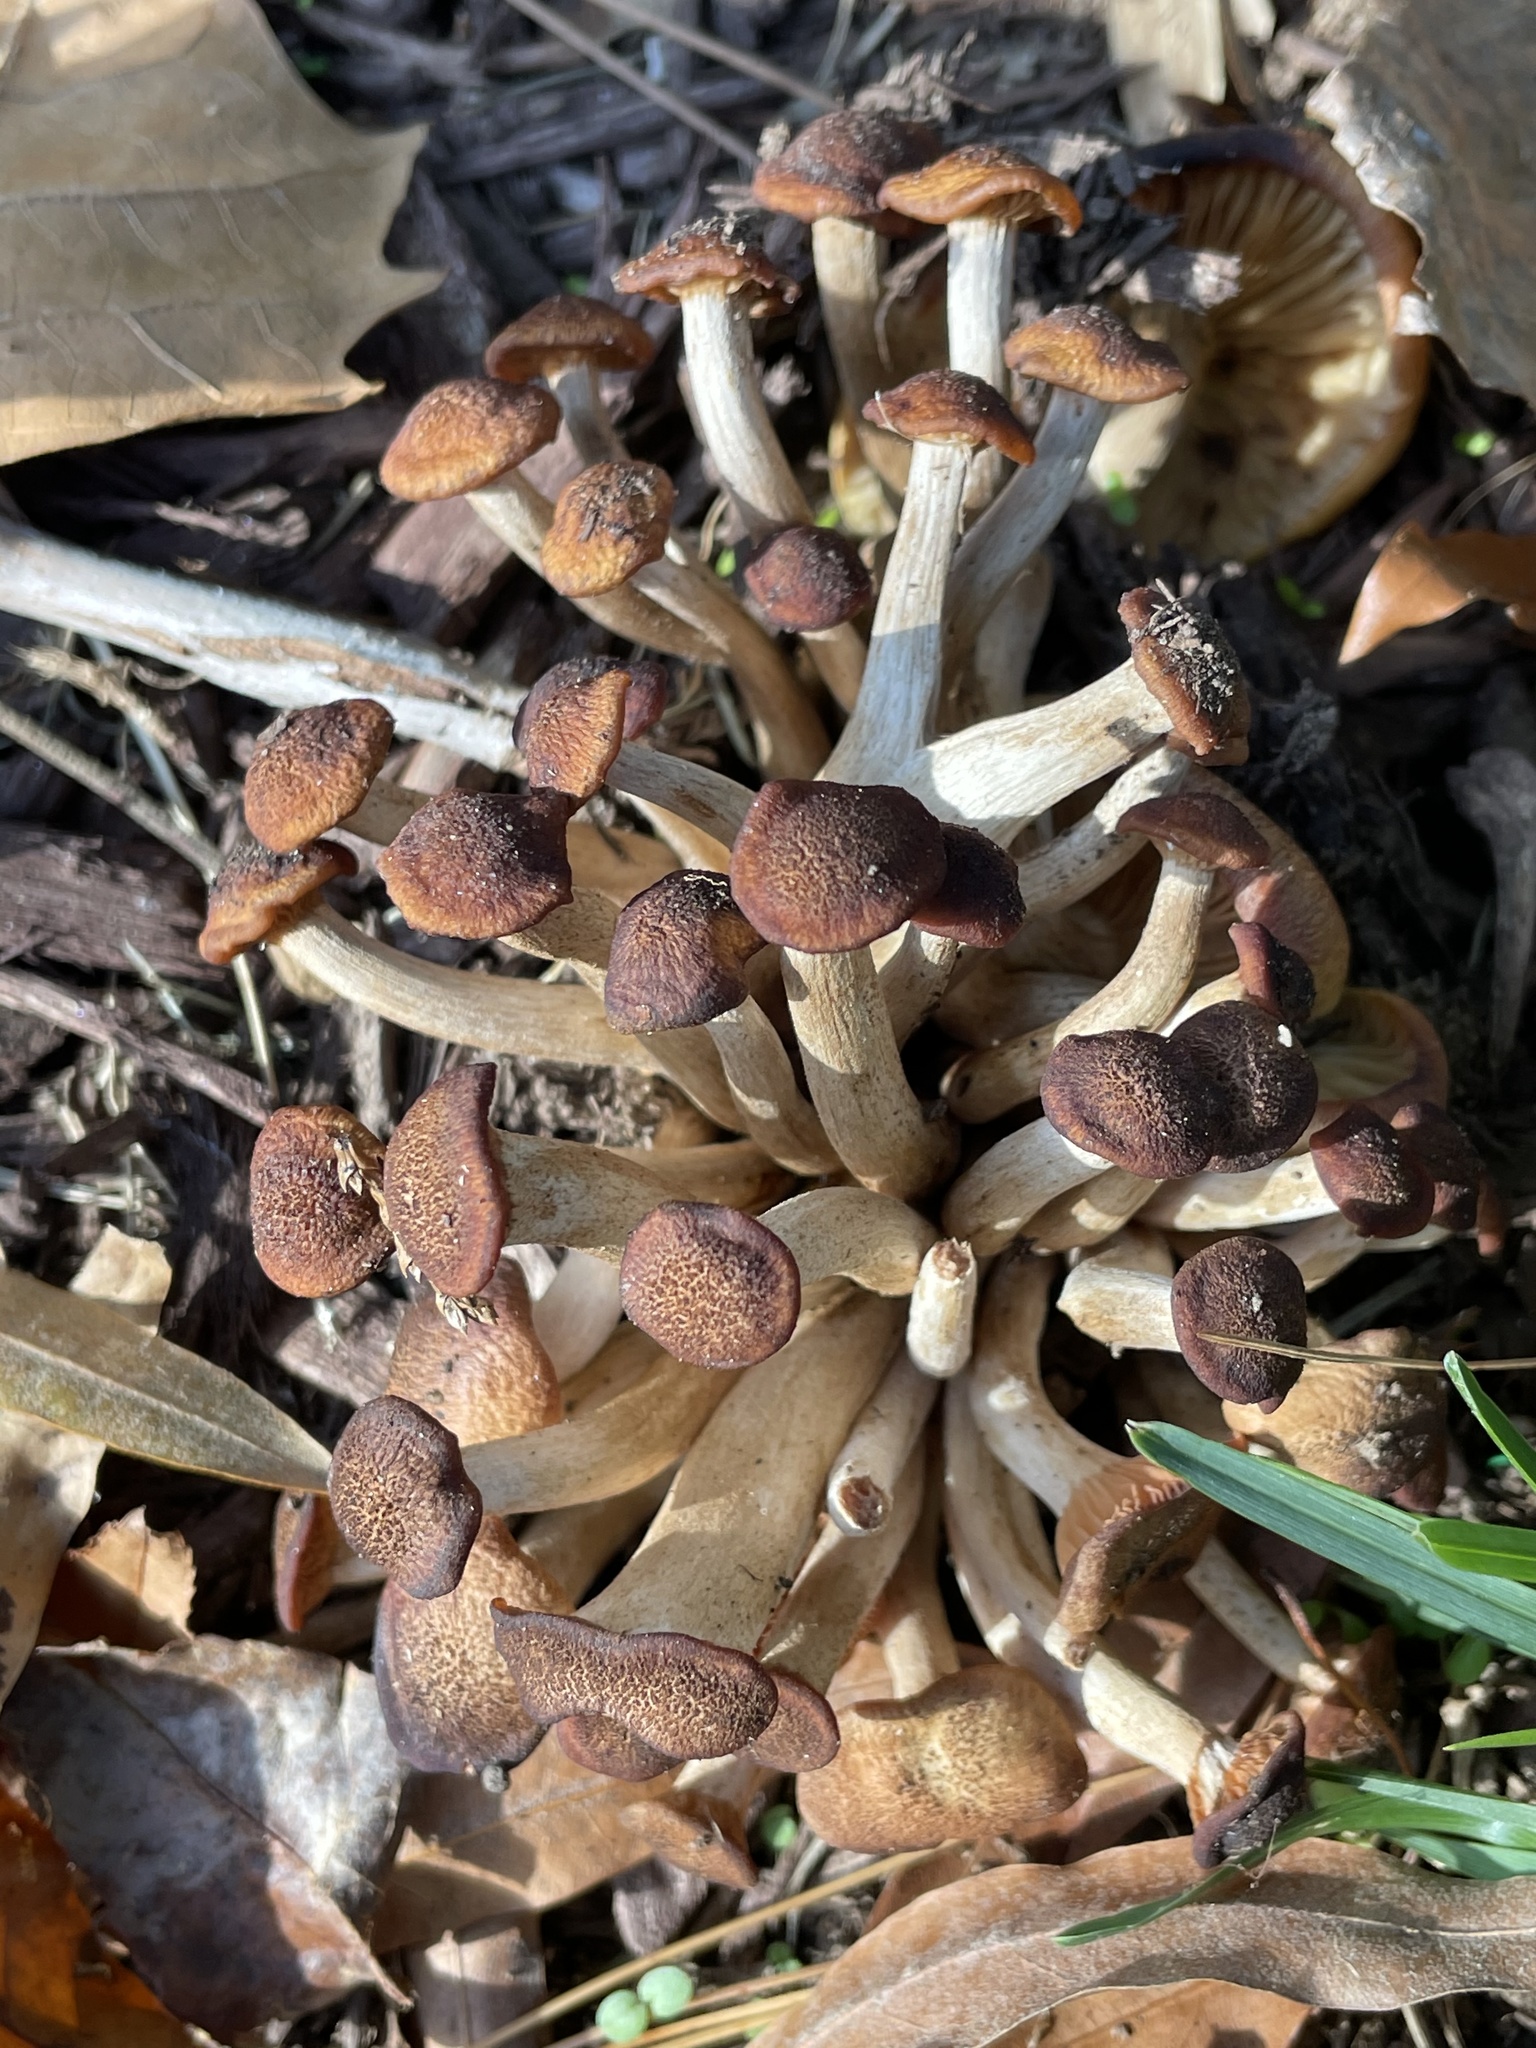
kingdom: Fungi
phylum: Basidiomycota
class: Agaricomycetes
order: Agaricales
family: Physalacriaceae
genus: Desarmillaria
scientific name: Desarmillaria caespitosa
